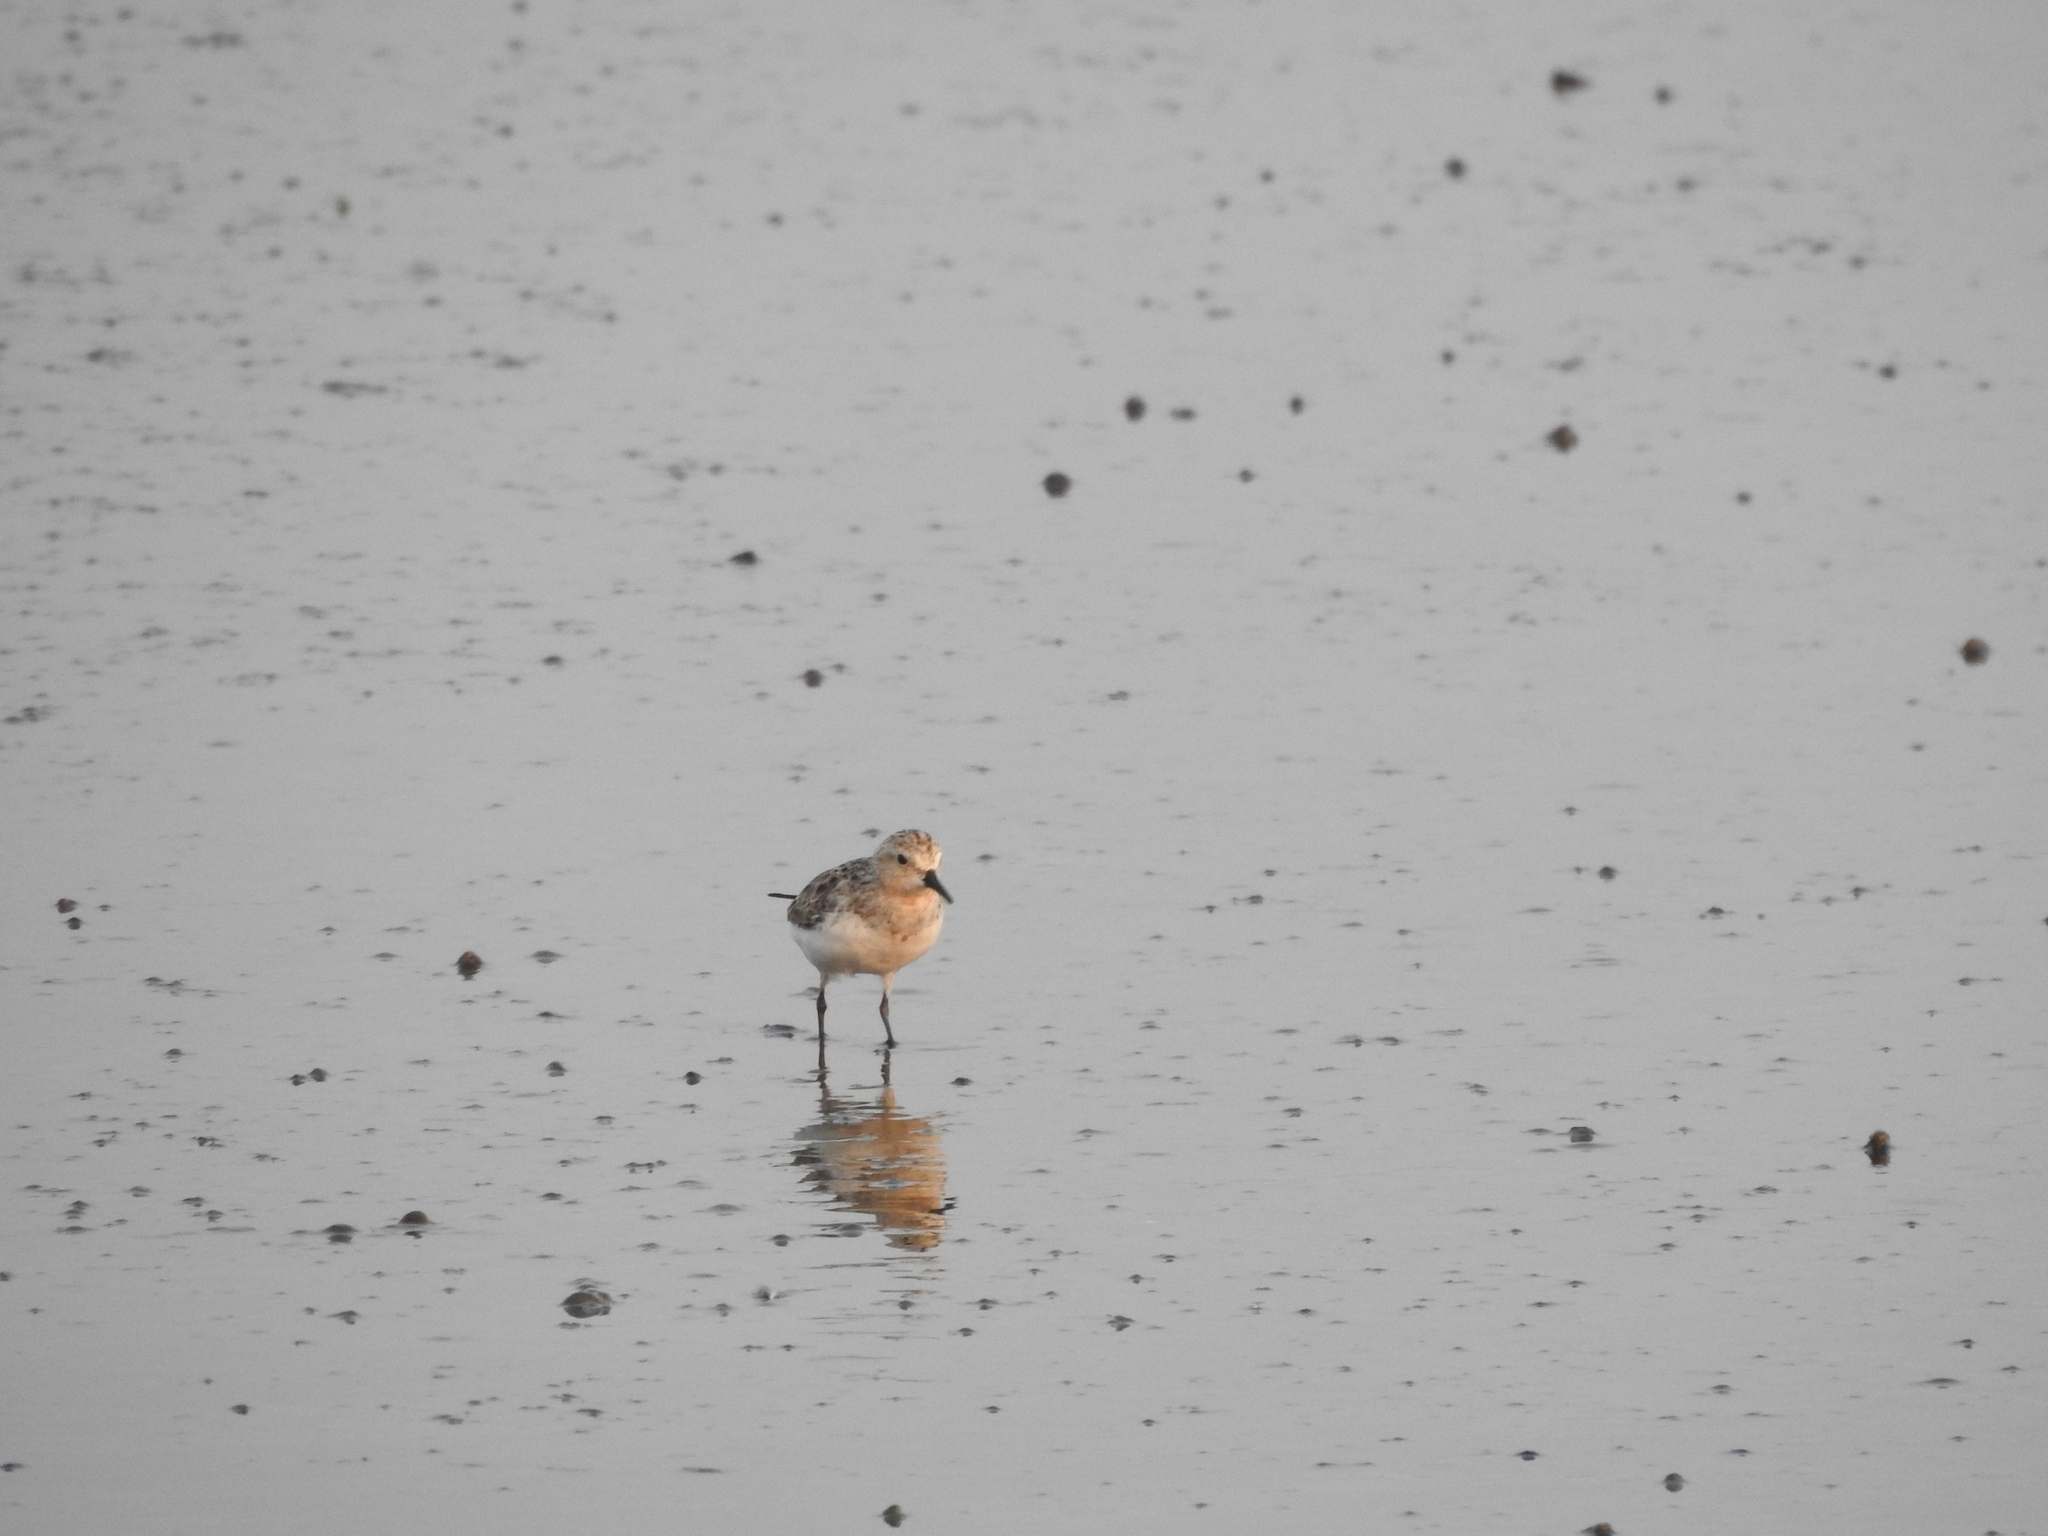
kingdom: Animalia
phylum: Chordata
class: Aves
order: Charadriiformes
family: Scolopacidae
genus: Calidris
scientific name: Calidris ruficollis
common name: Red-necked stint
